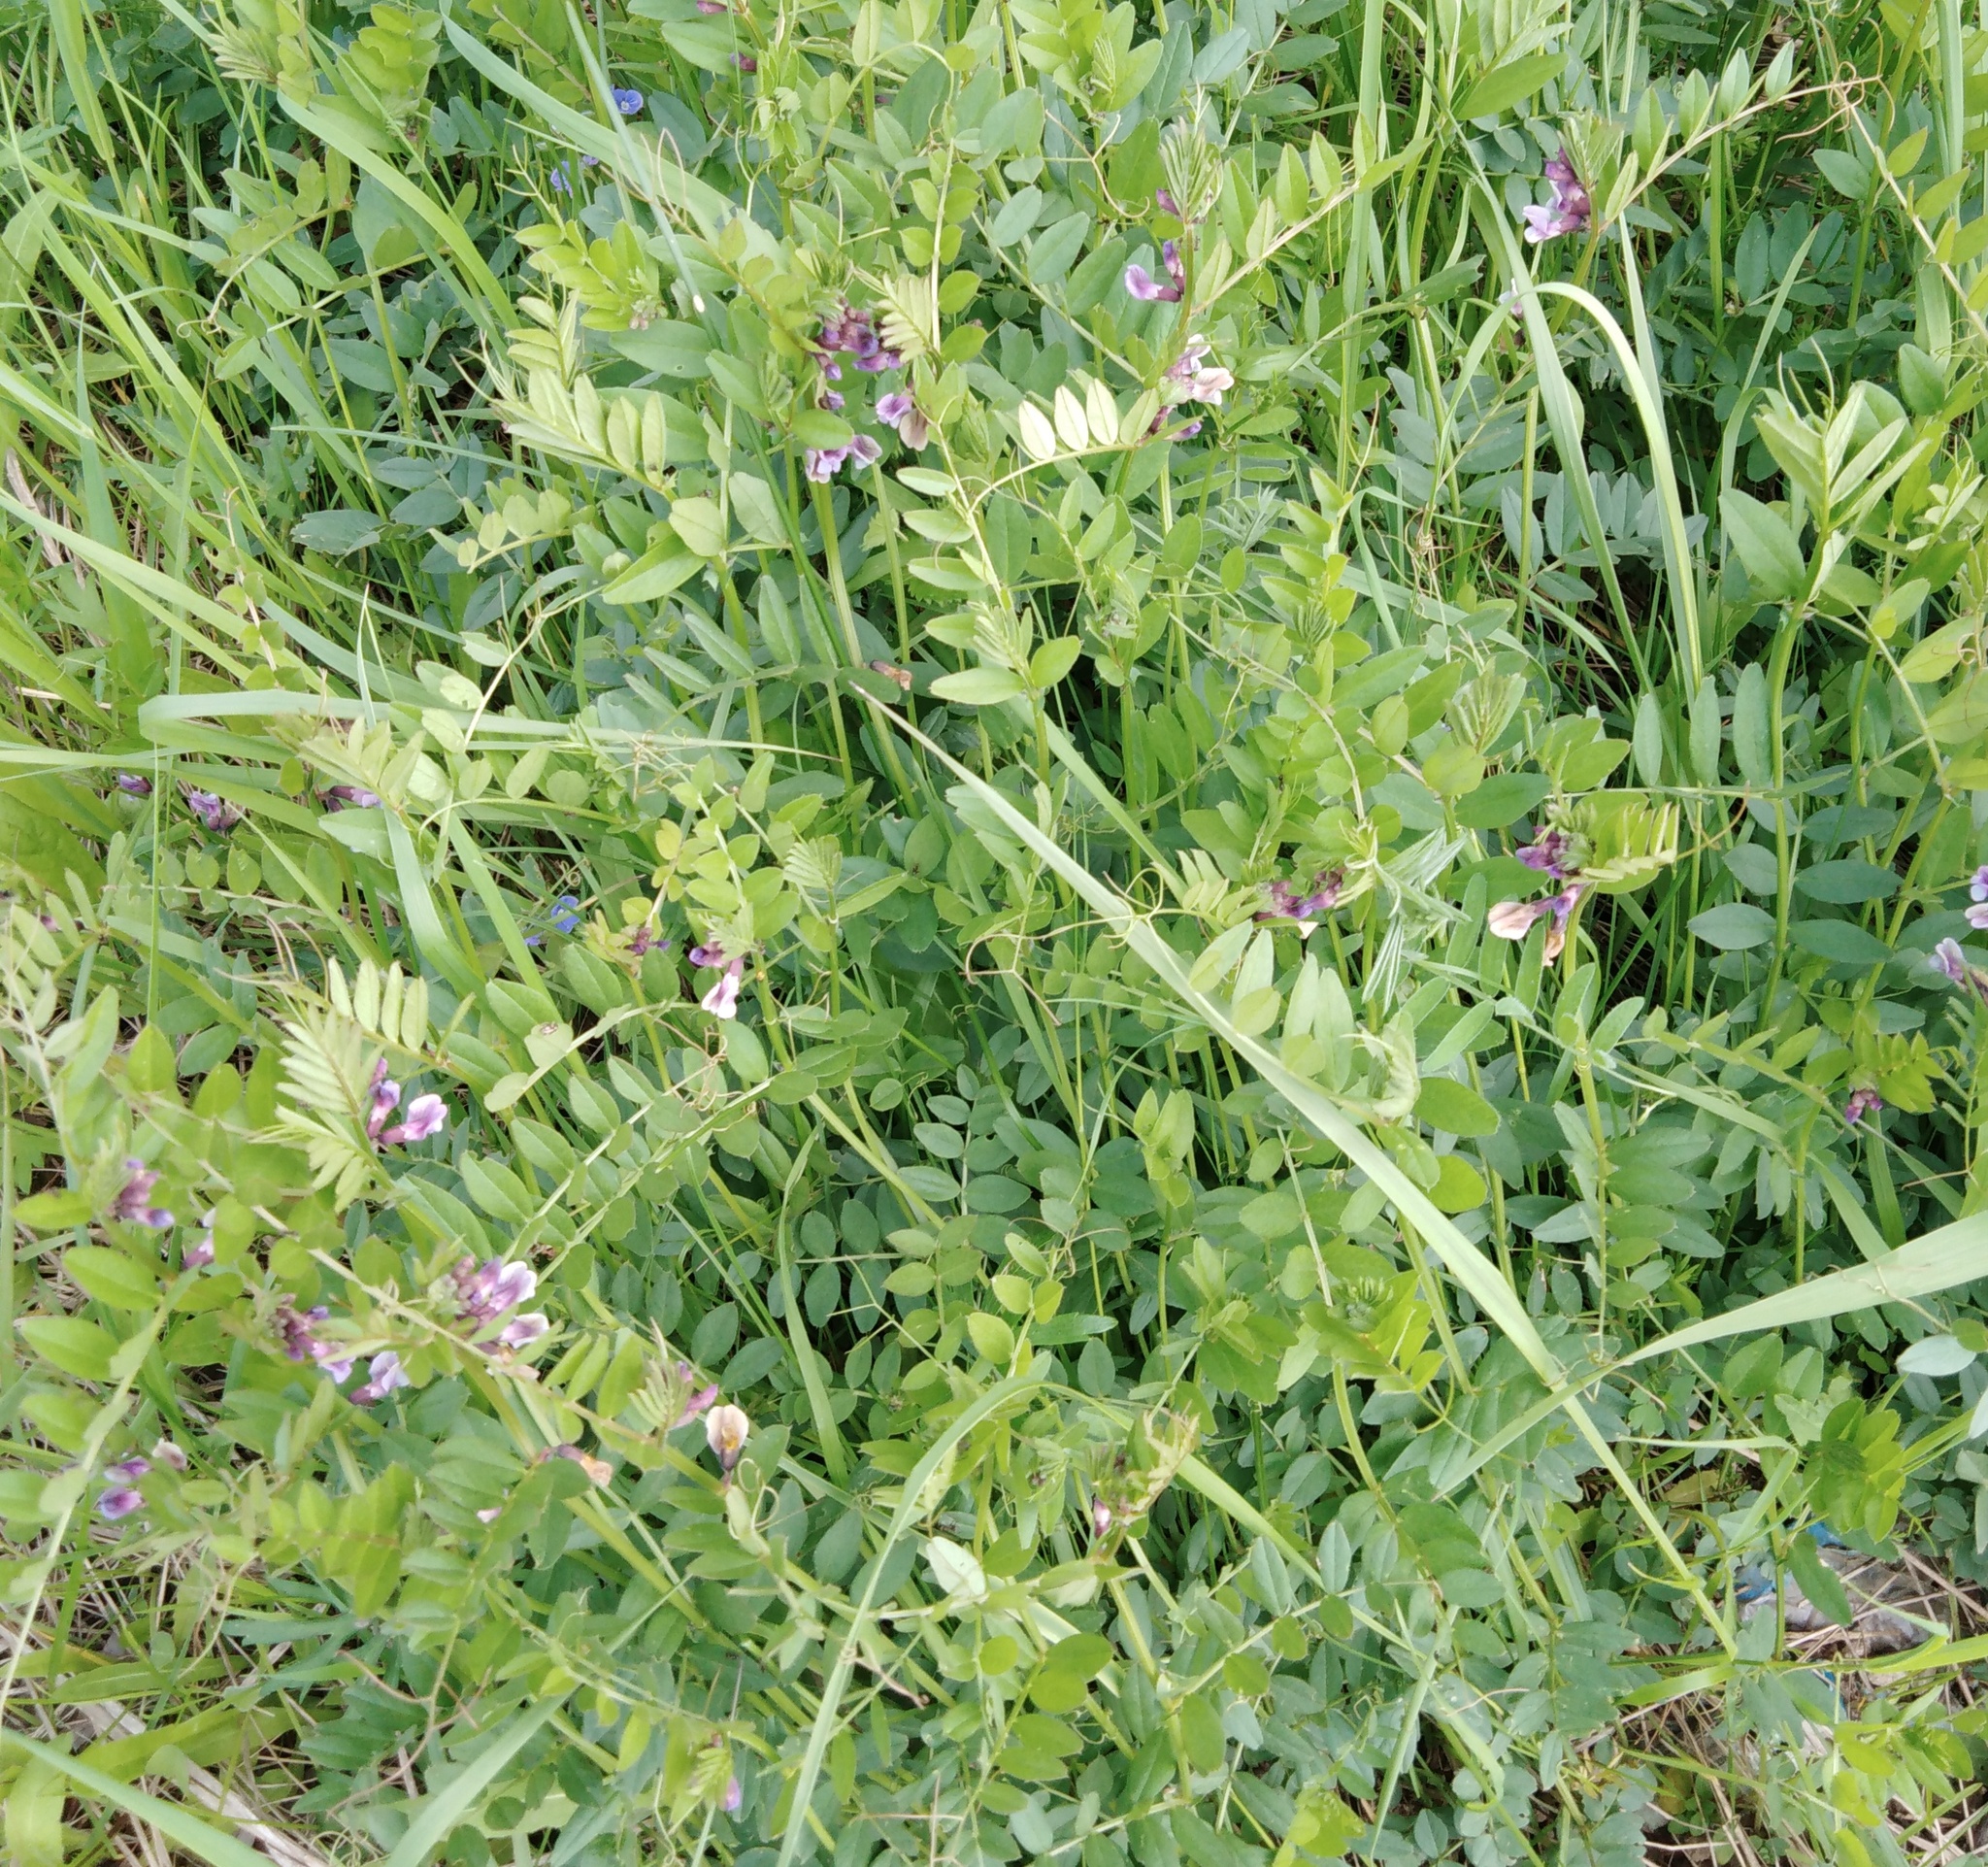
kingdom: Plantae
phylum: Tracheophyta
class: Magnoliopsida
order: Fabales
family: Fabaceae
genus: Vicia
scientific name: Vicia sepium
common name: Bush vetch
